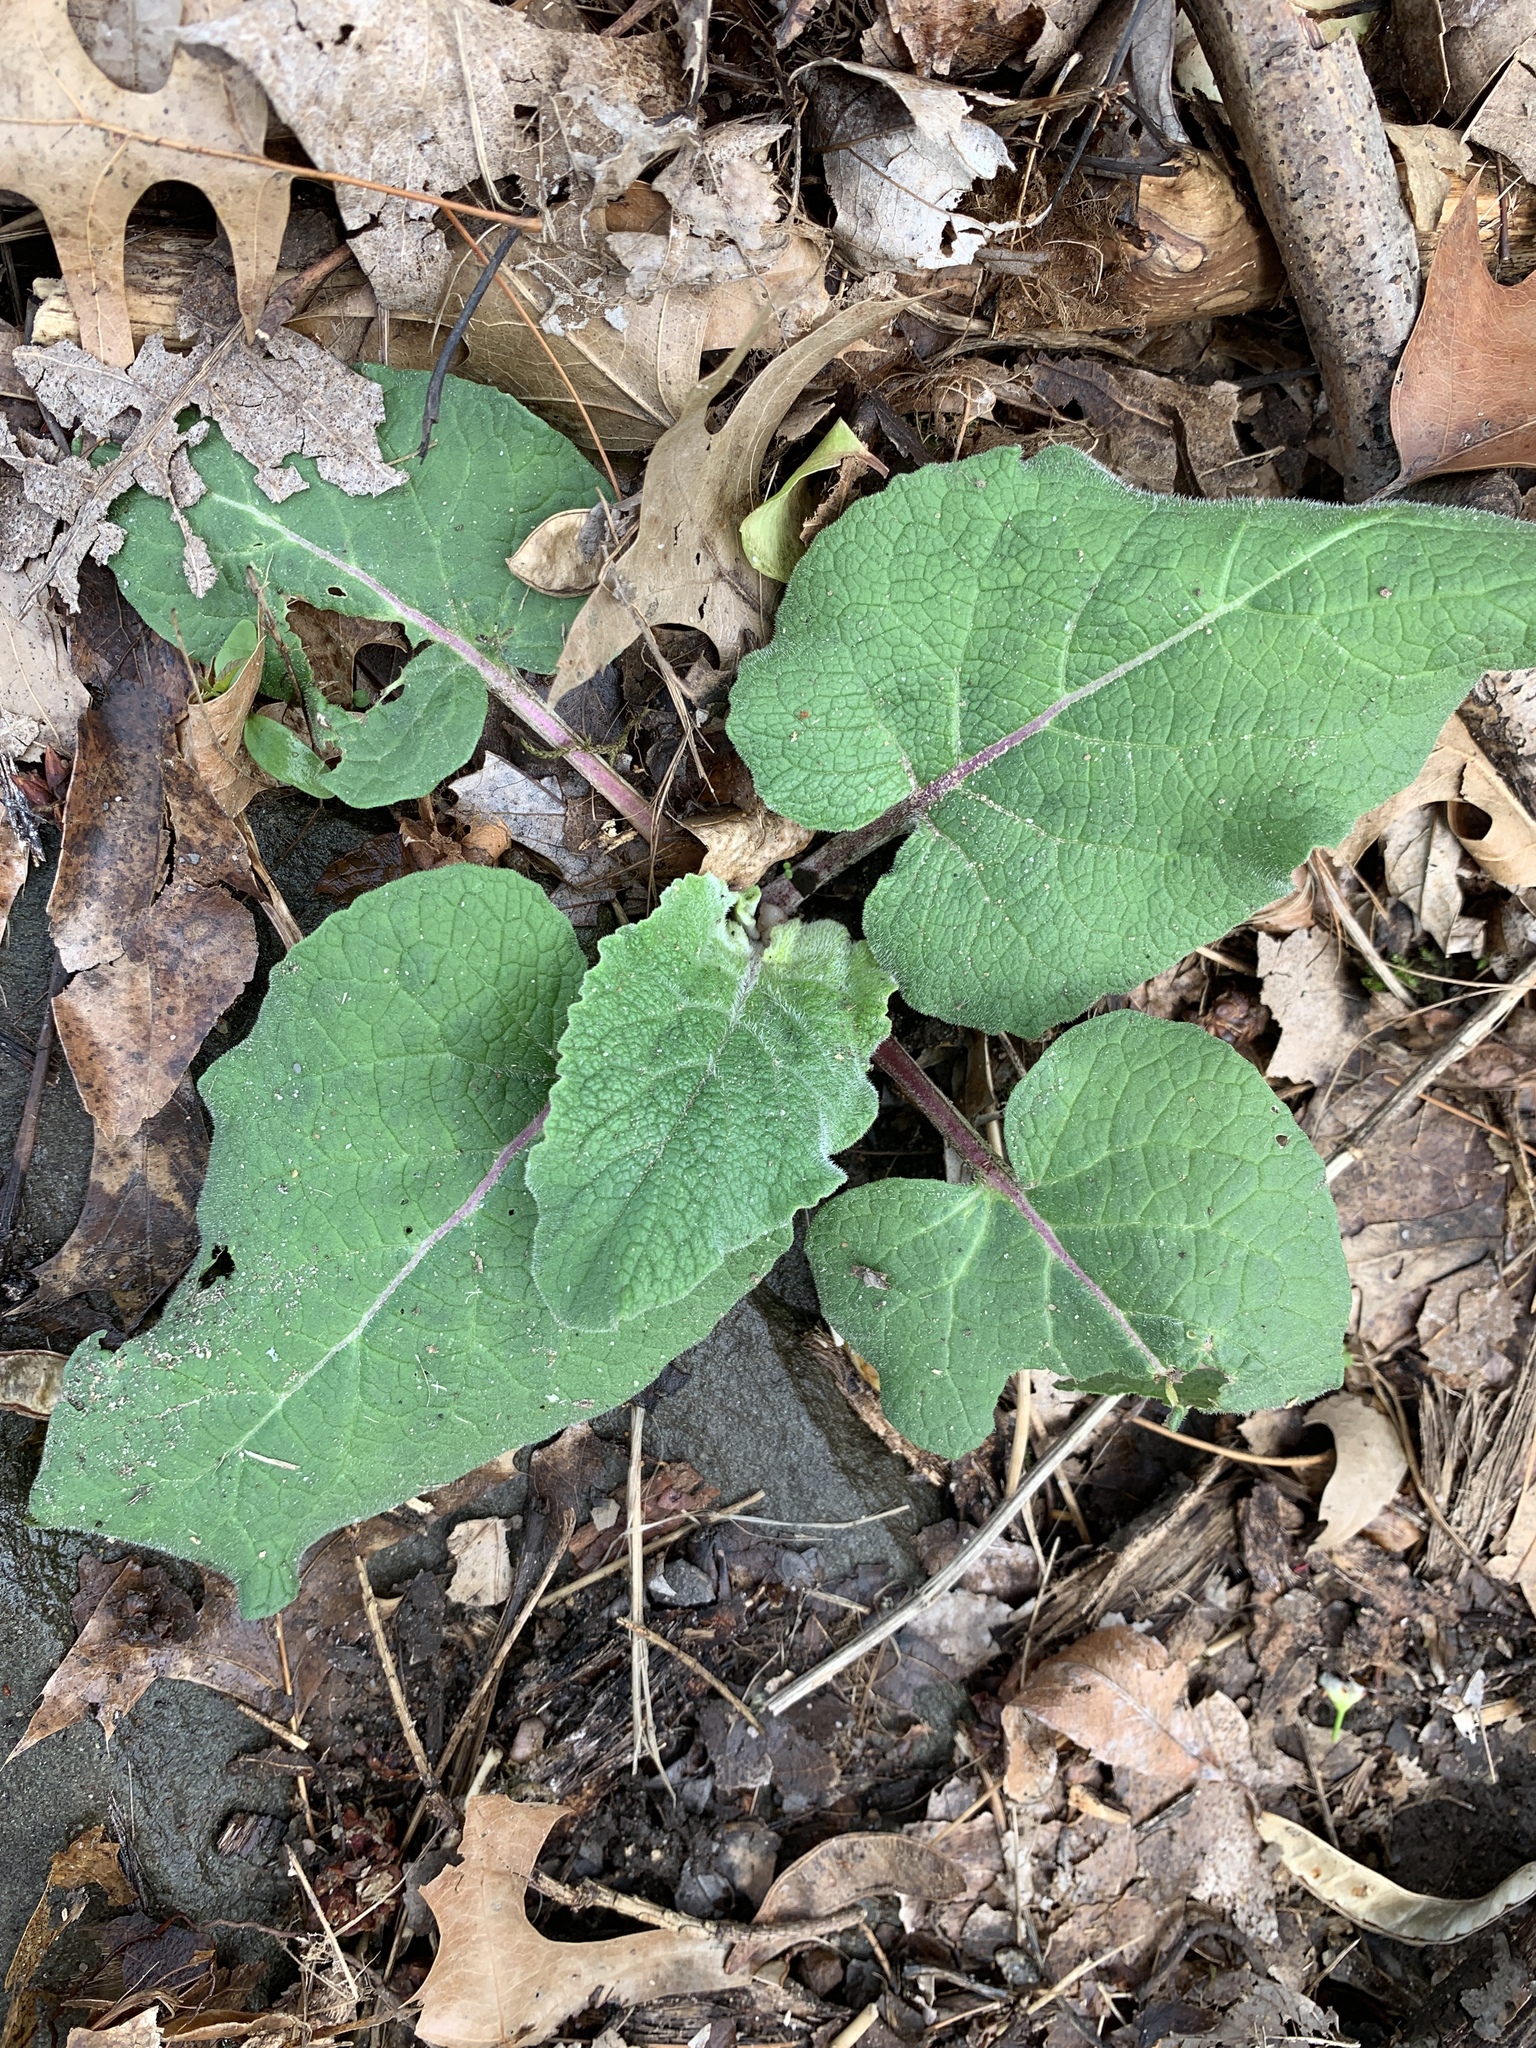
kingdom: Plantae
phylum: Tracheophyta
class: Magnoliopsida
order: Asterales
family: Asteraceae
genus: Arctium
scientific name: Arctium
